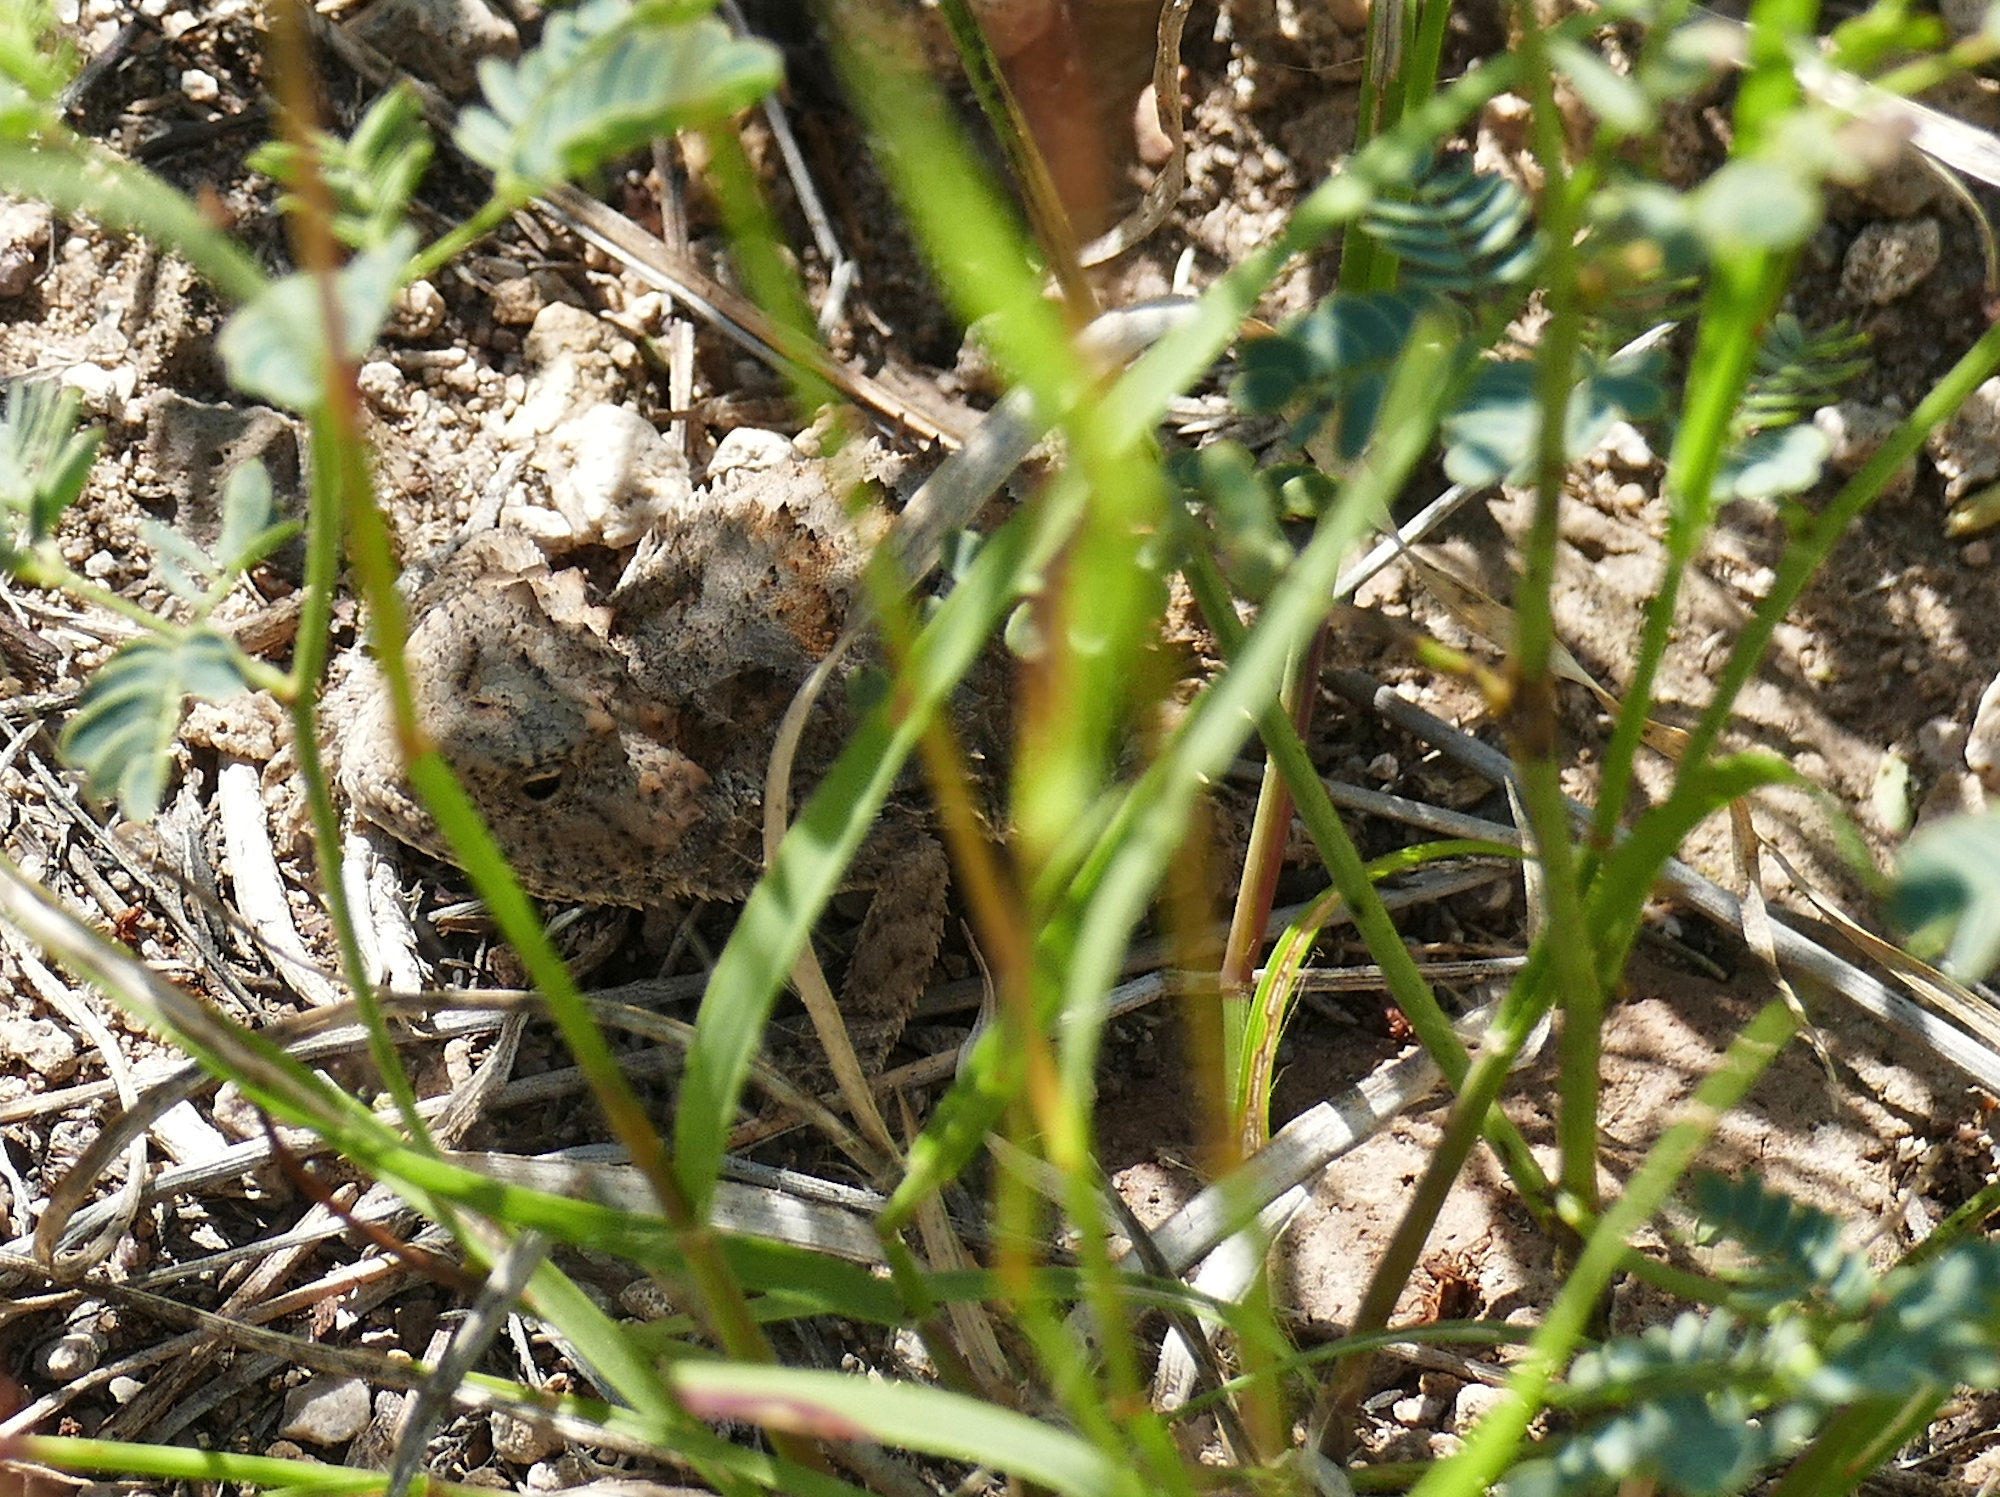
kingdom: Animalia
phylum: Chordata
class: Squamata
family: Phrynosomatidae
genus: Phrynosoma
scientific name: Phrynosoma hernandesi
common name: Greater short-horned lizard
